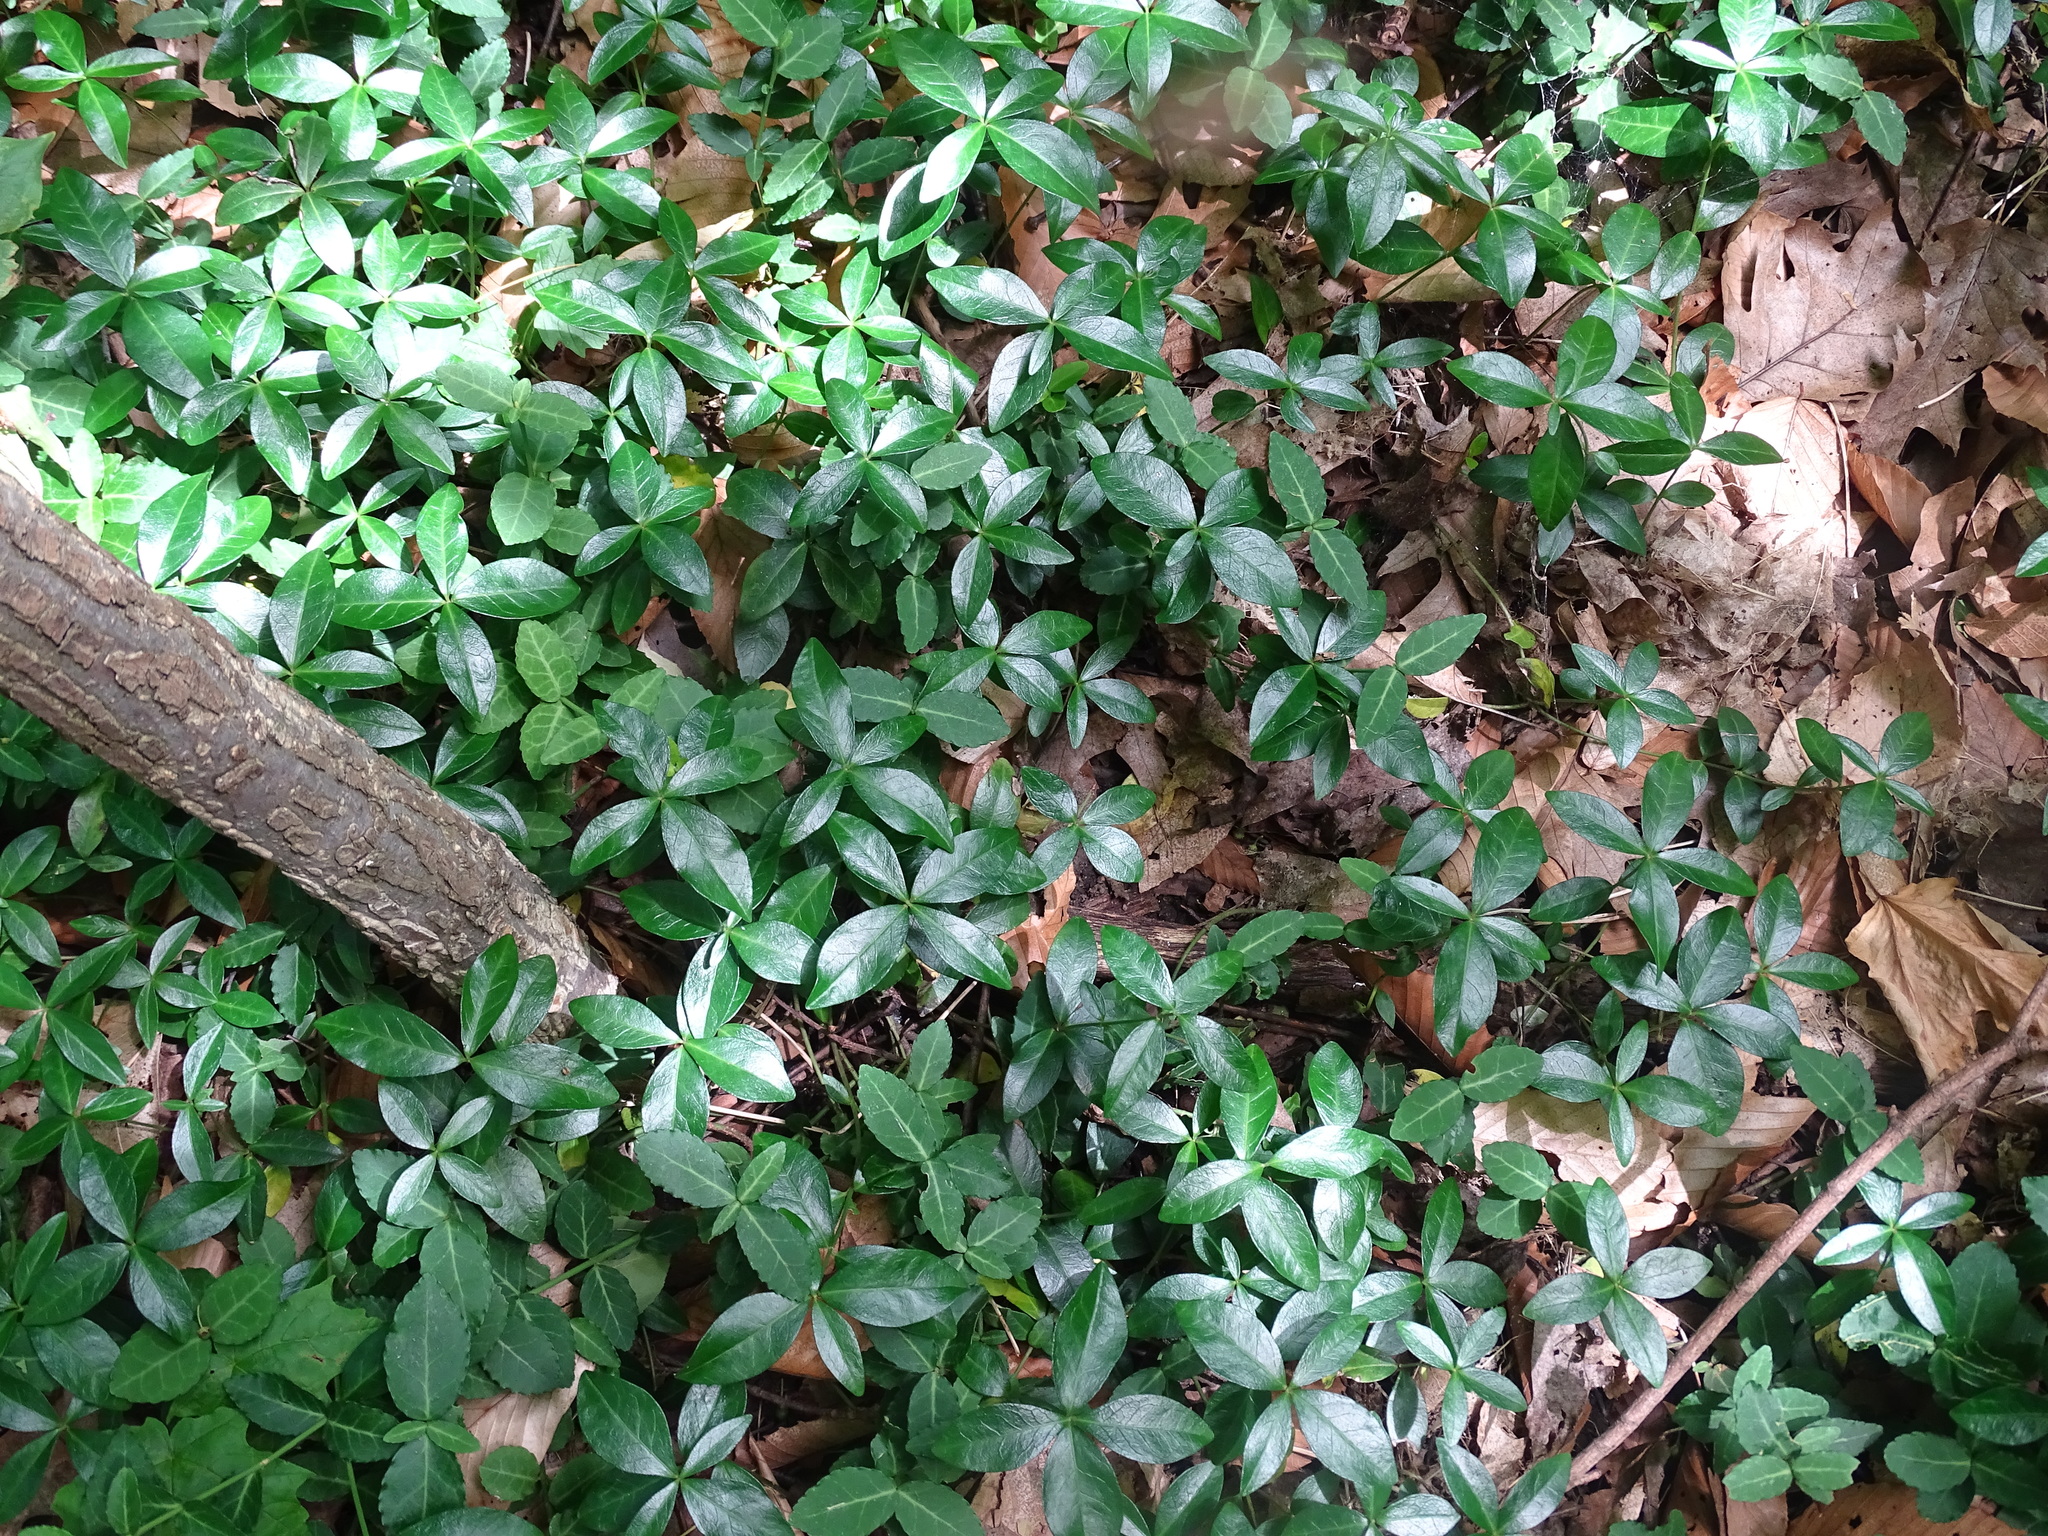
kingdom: Plantae
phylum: Tracheophyta
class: Magnoliopsida
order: Gentianales
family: Apocynaceae
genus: Vinca
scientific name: Vinca minor
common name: Lesser periwinkle
